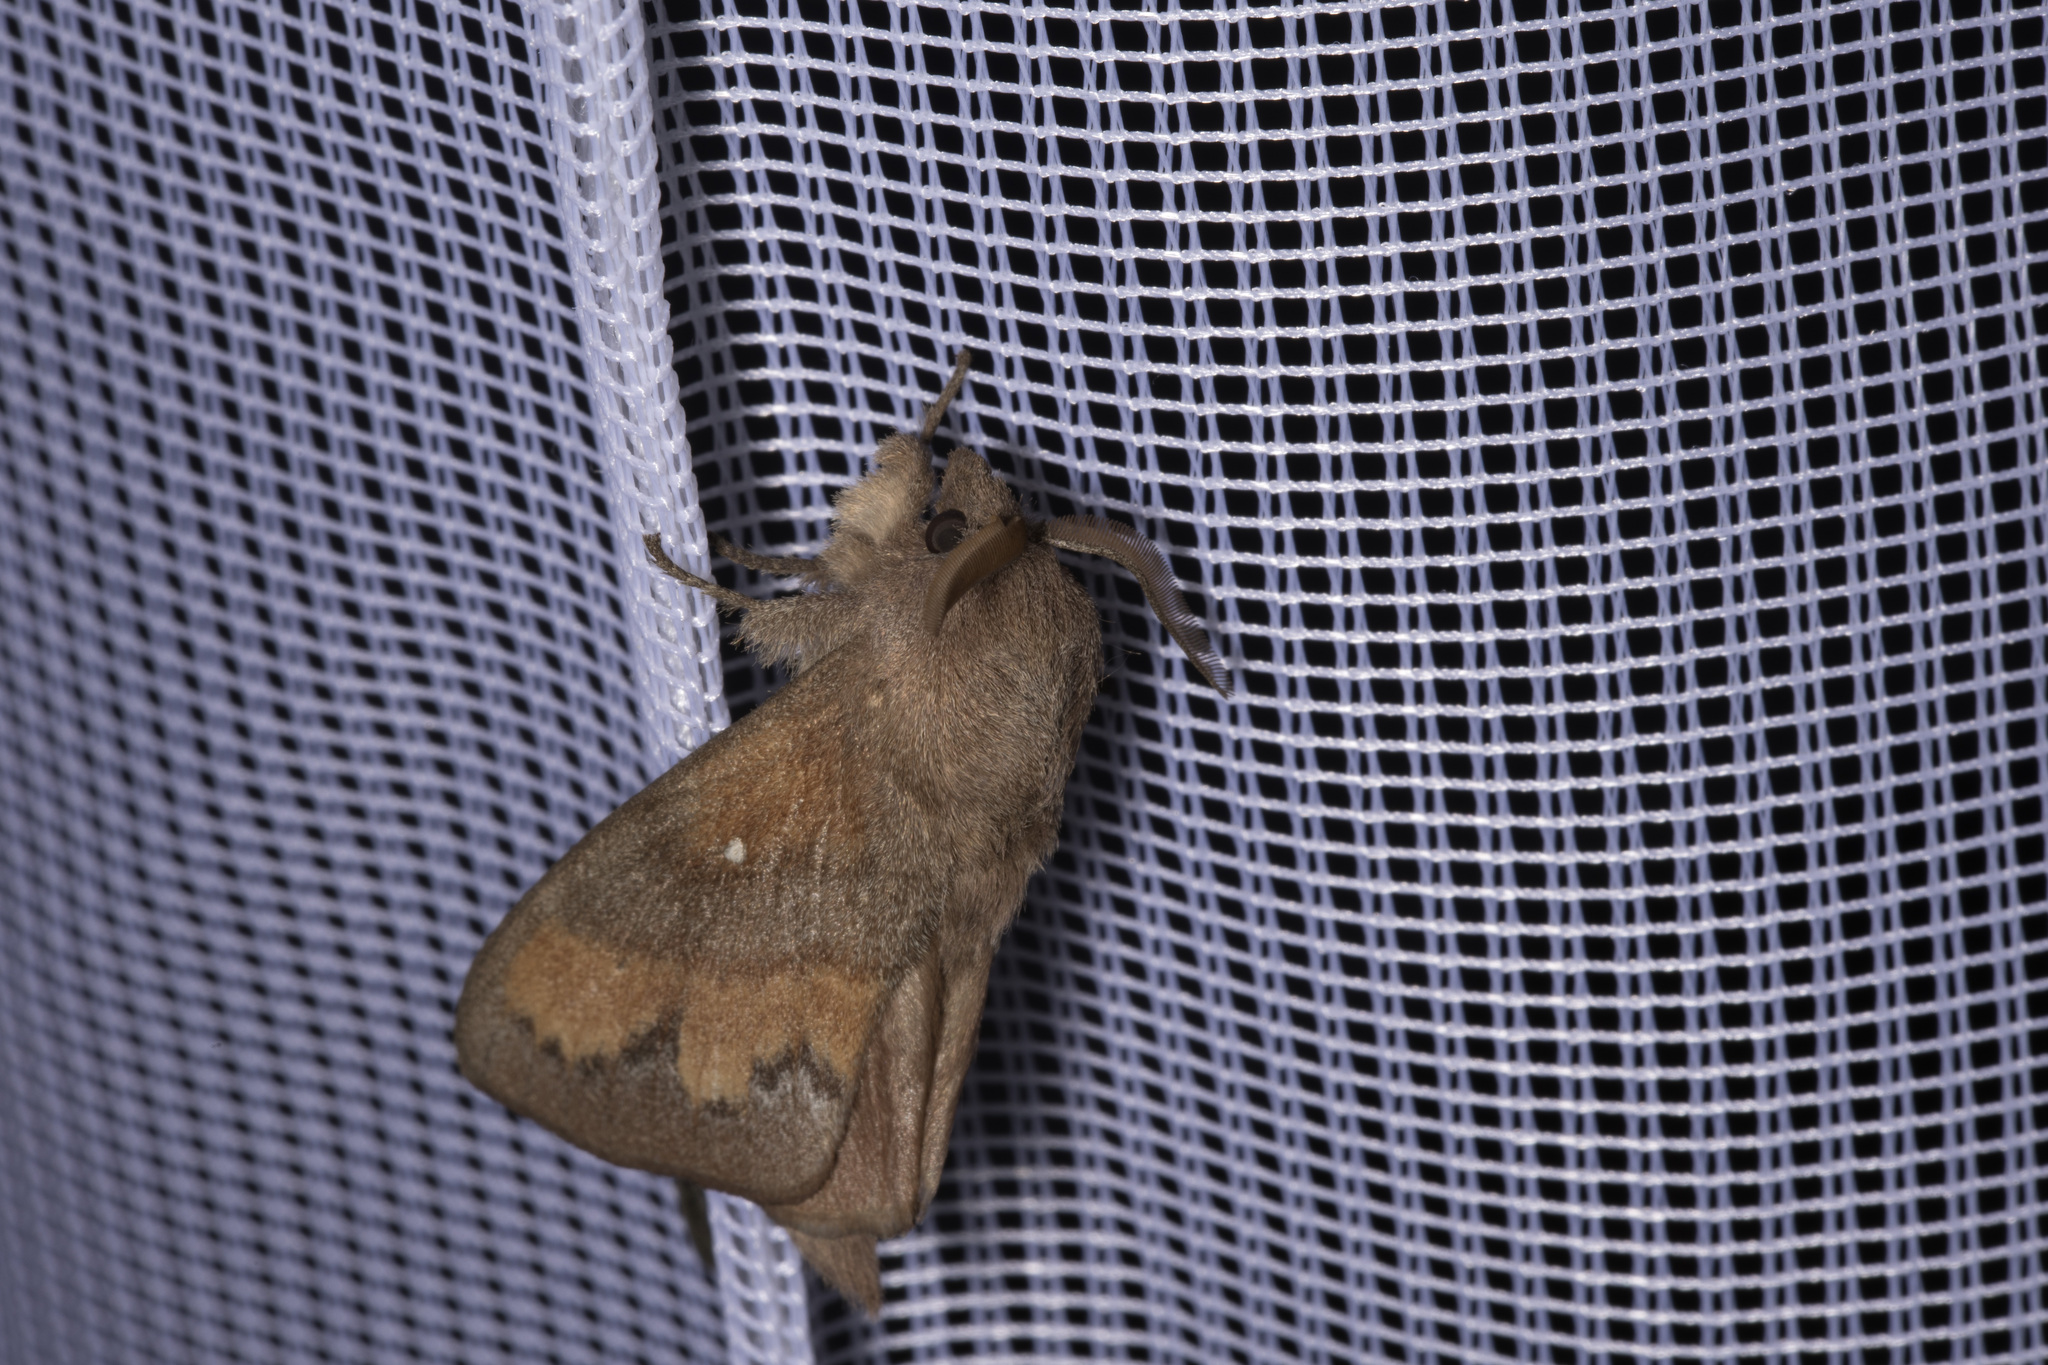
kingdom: Animalia
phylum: Arthropoda
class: Insecta
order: Lepidoptera
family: Lasiocampidae
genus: Dendrolimus
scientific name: Dendrolimus pini
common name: Pine-tree lappet
